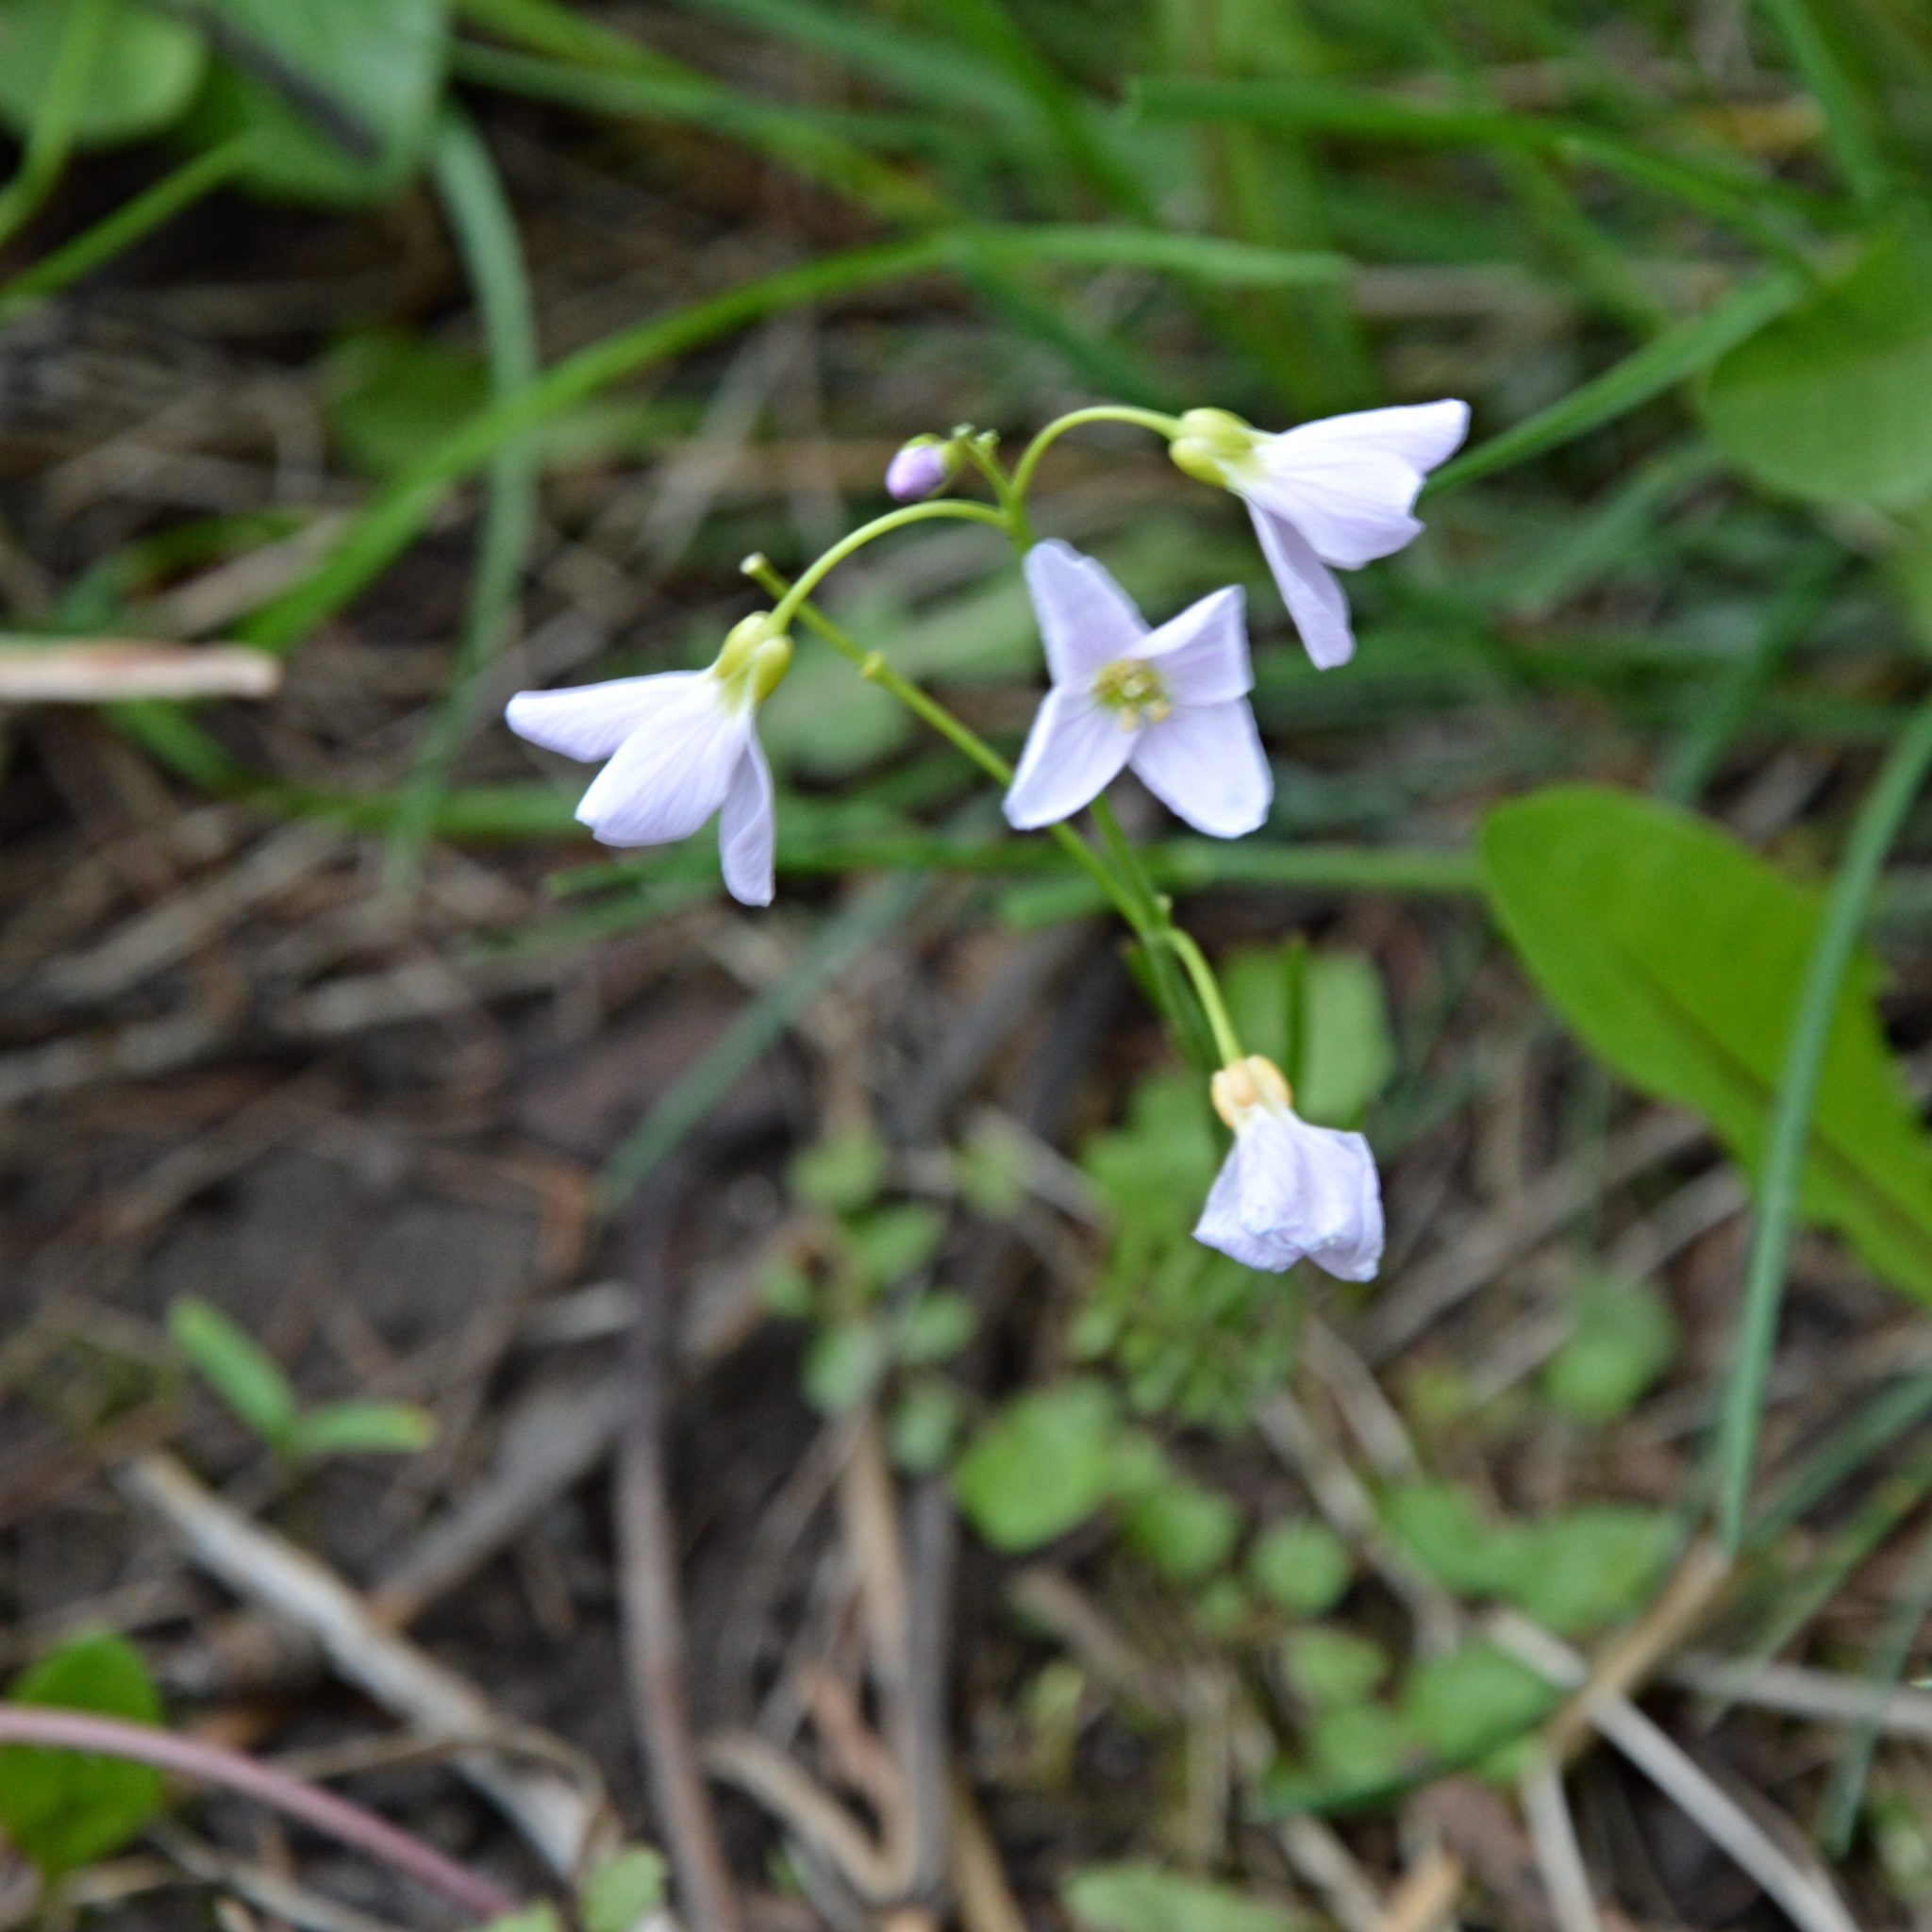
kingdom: Plantae
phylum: Tracheophyta
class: Magnoliopsida
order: Brassicales
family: Brassicaceae
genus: Cardamine
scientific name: Cardamine pratensis
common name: Cuckoo flower
